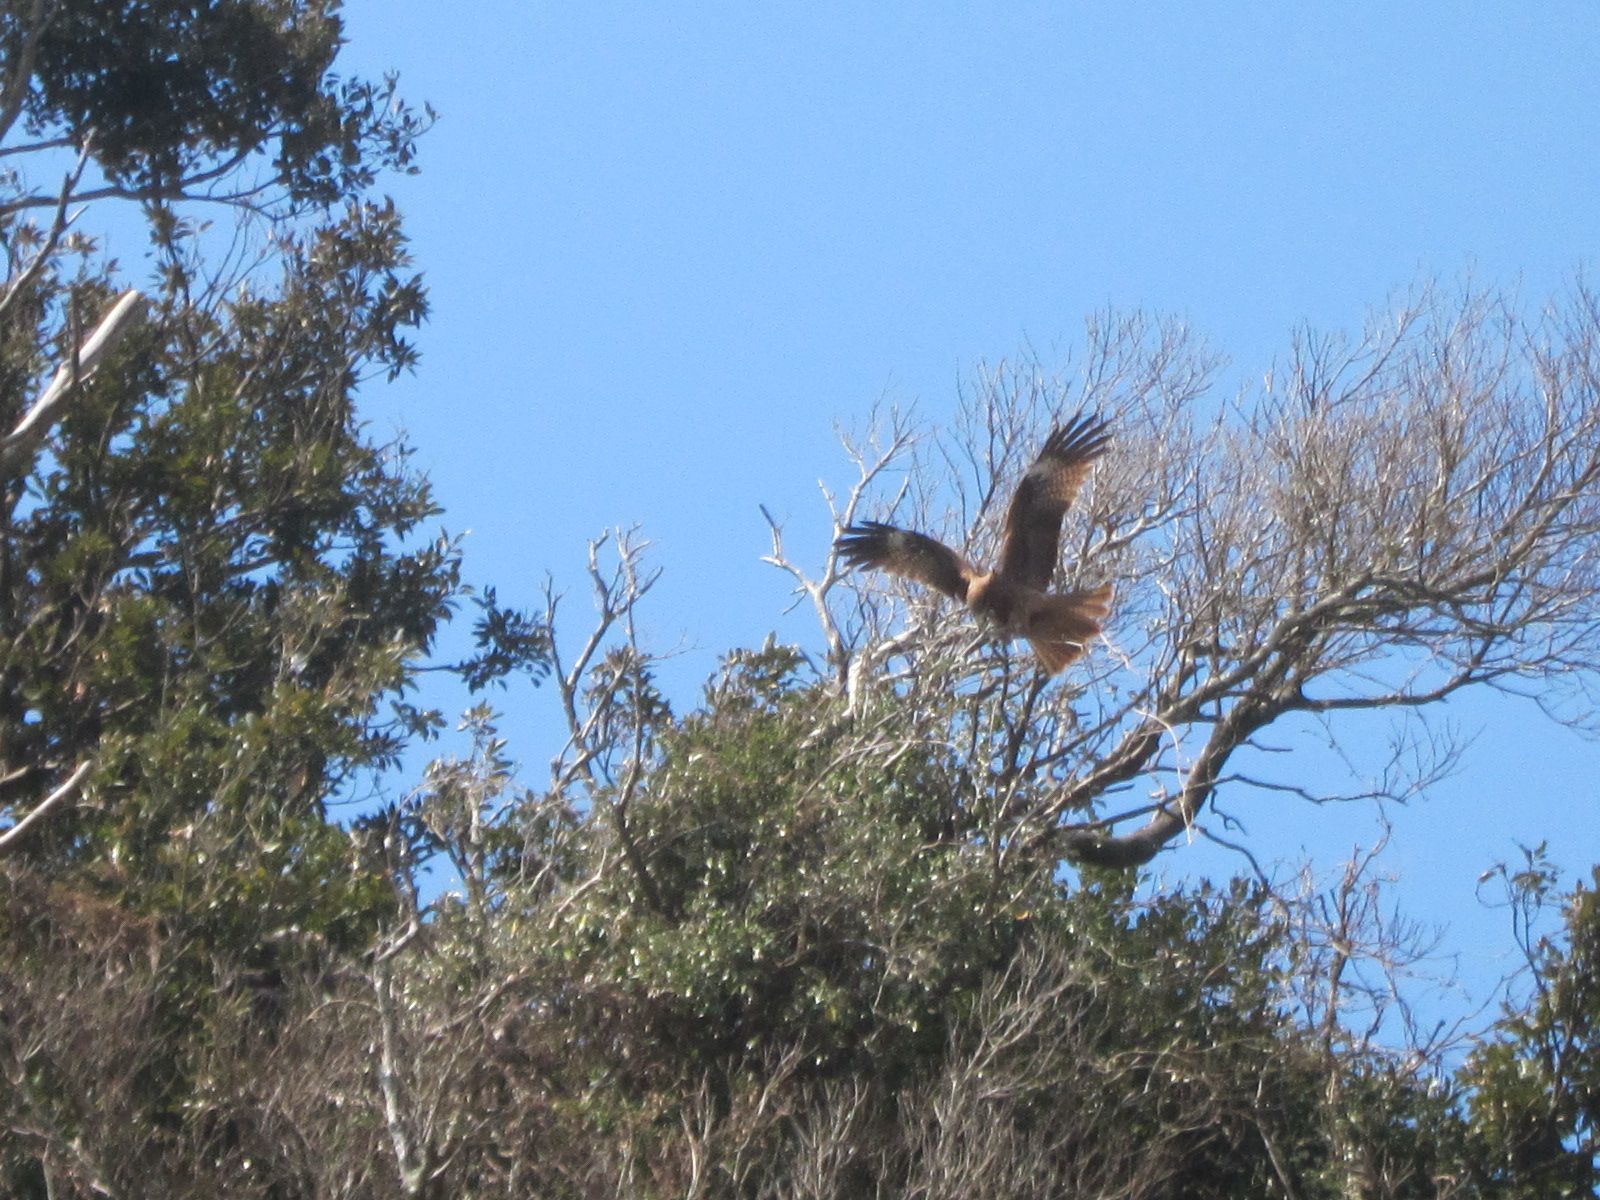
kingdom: Animalia
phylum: Chordata
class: Aves
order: Accipitriformes
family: Accipitridae
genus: Milvus
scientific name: Milvus migrans
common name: Black kite
